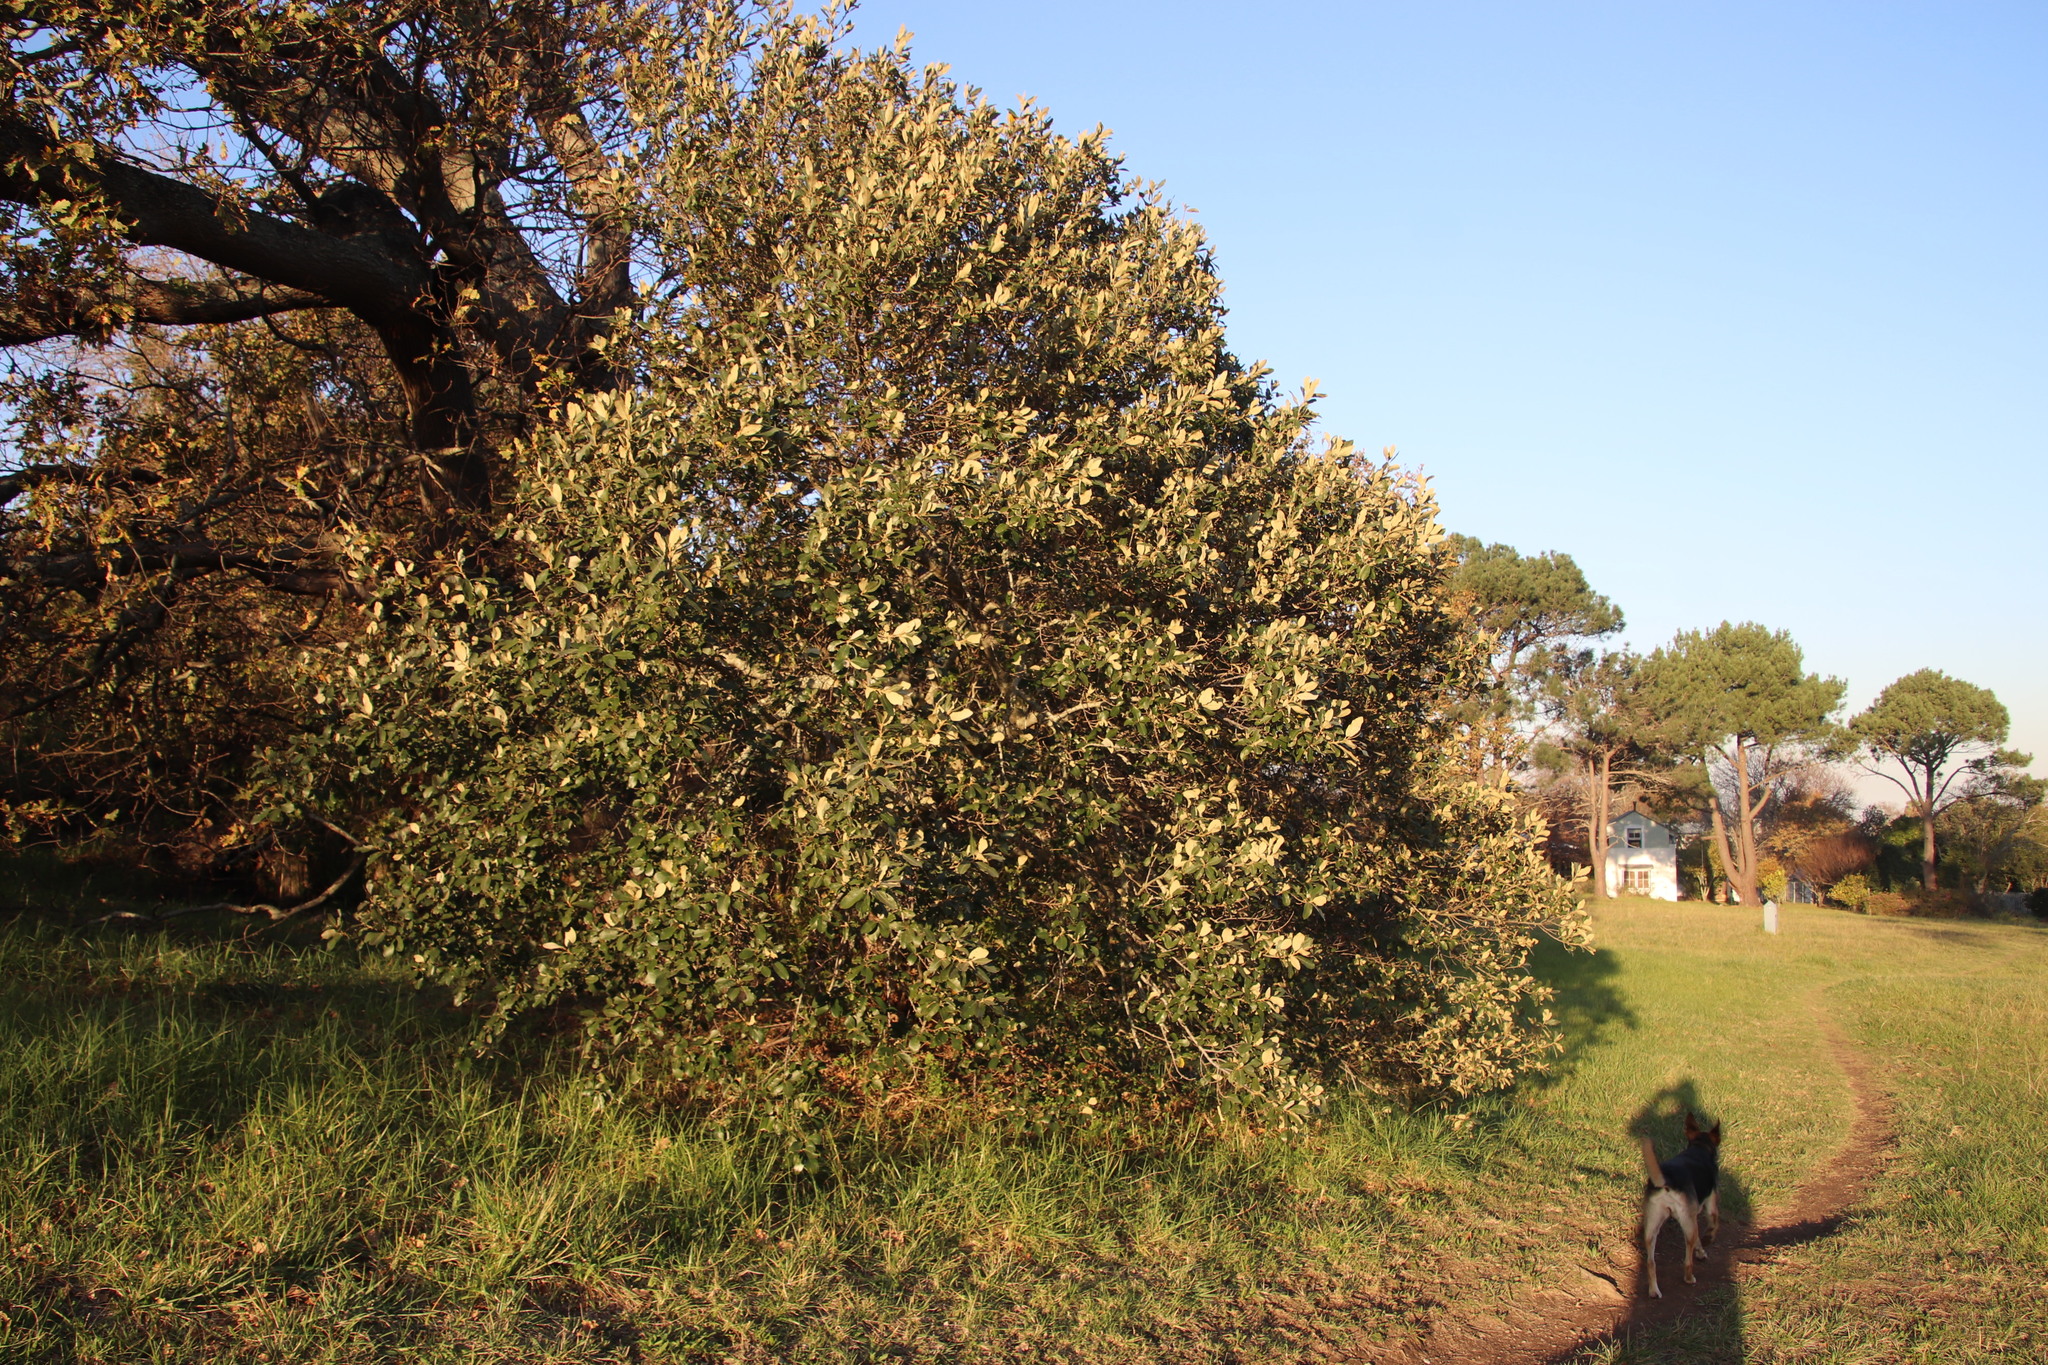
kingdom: Plantae
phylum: Tracheophyta
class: Magnoliopsida
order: Malpighiales
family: Achariaceae
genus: Kiggelaria
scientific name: Kiggelaria africana
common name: Wild peach
